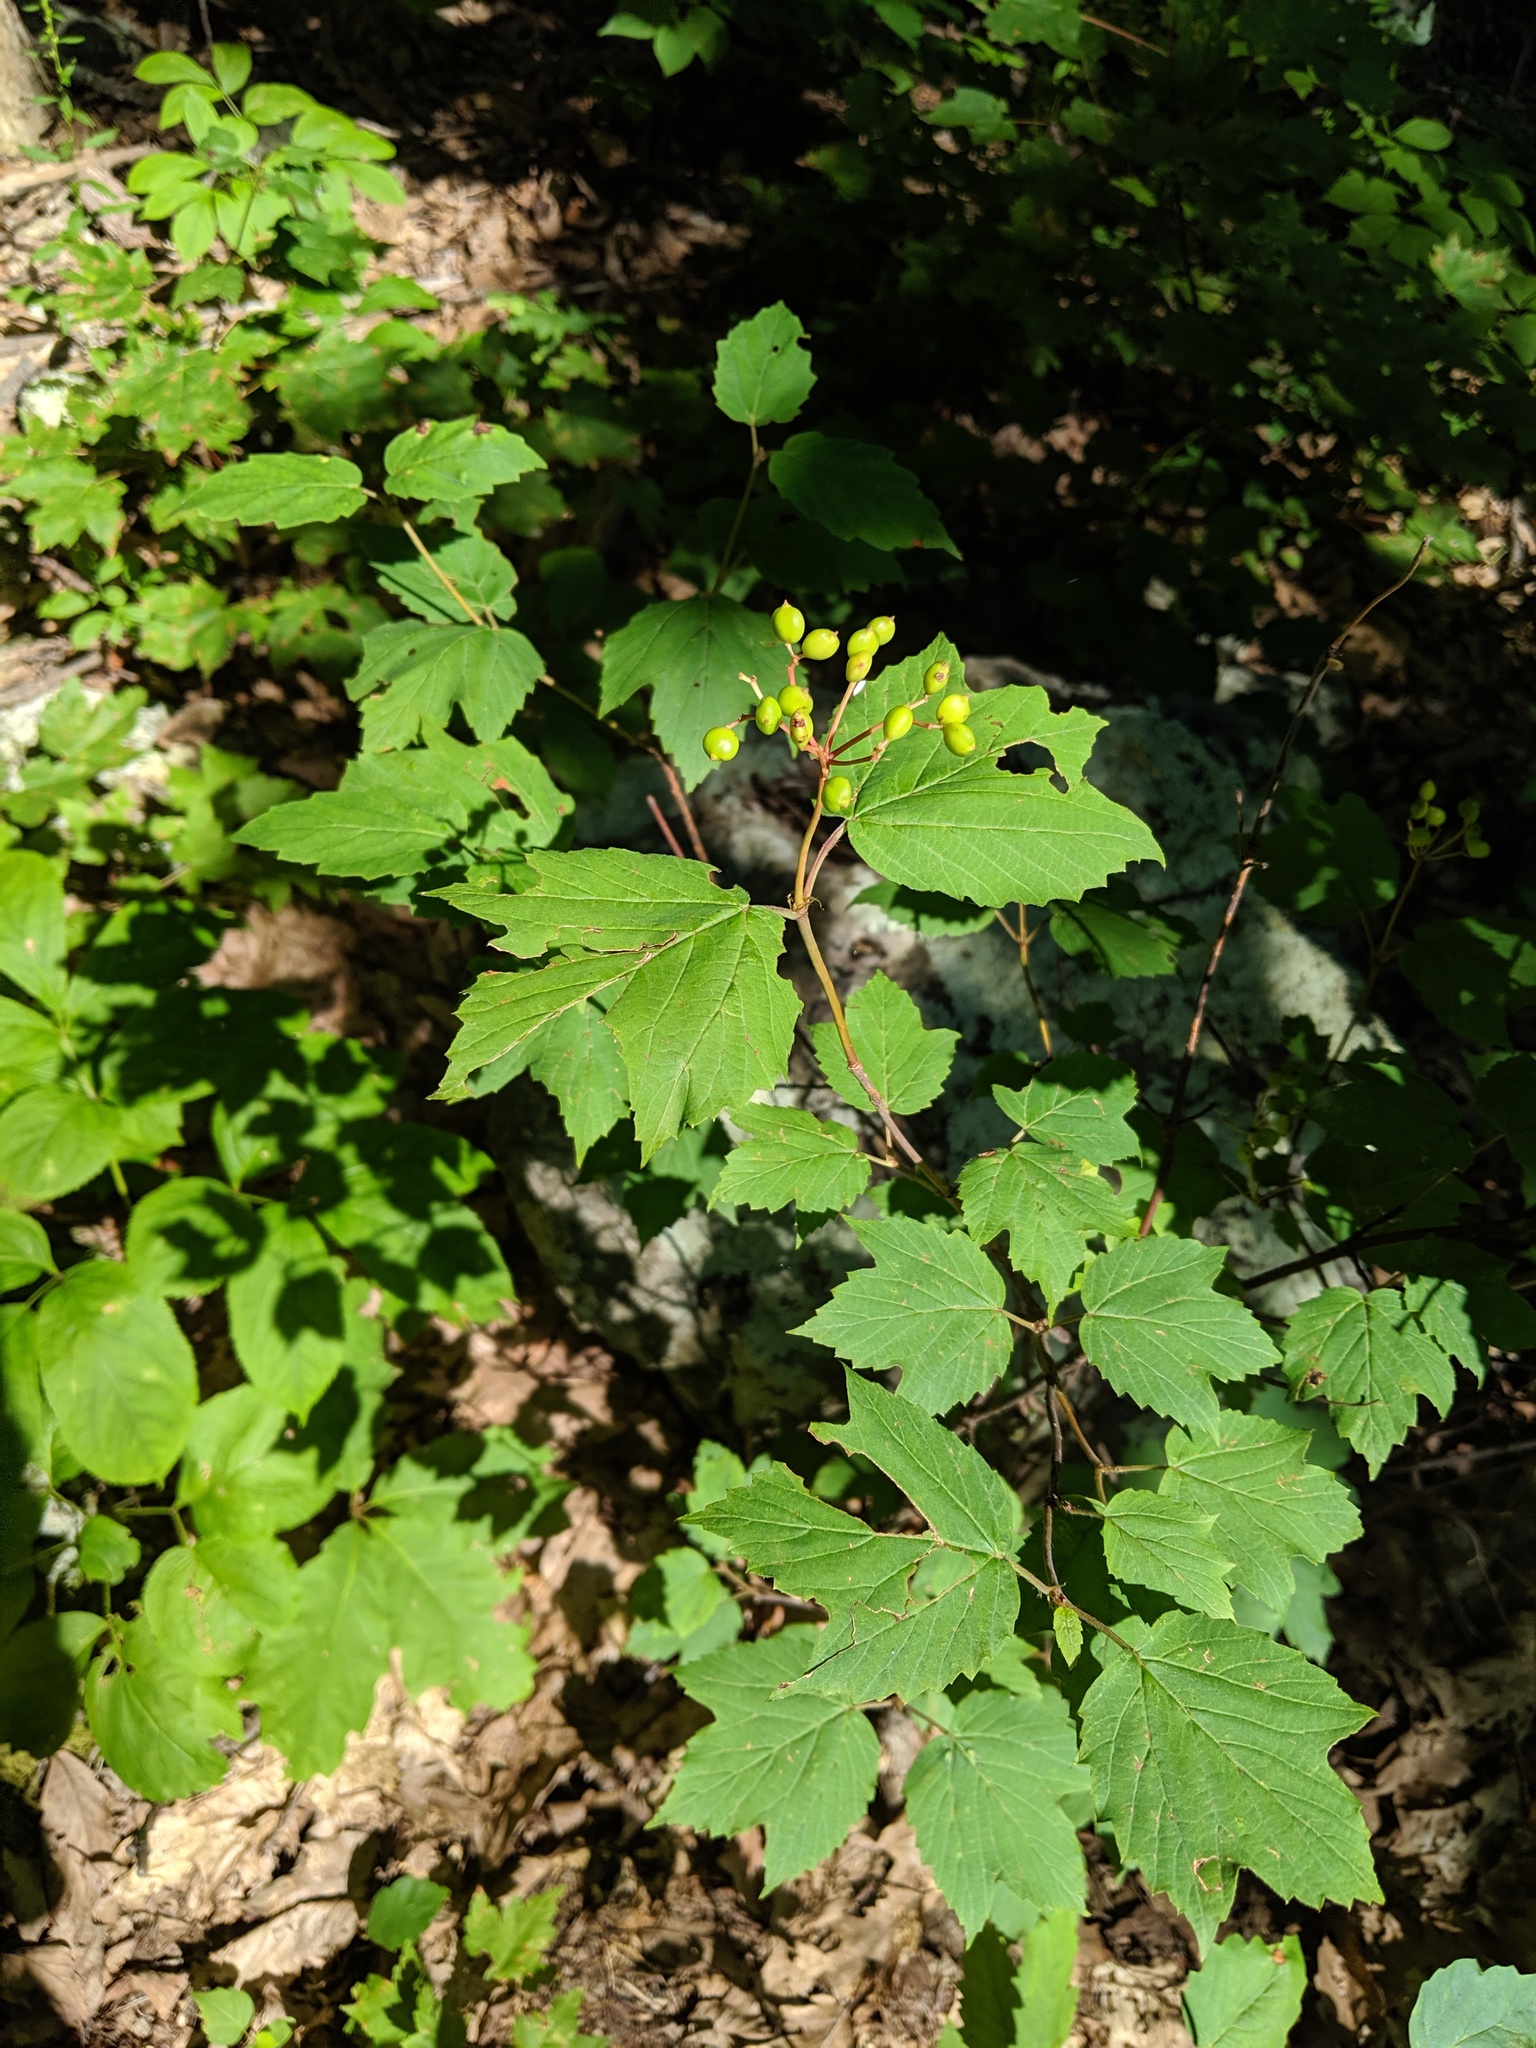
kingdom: Plantae
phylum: Tracheophyta
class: Magnoliopsida
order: Dipsacales
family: Viburnaceae
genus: Viburnum
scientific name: Viburnum acerifolium
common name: Dockmackie
